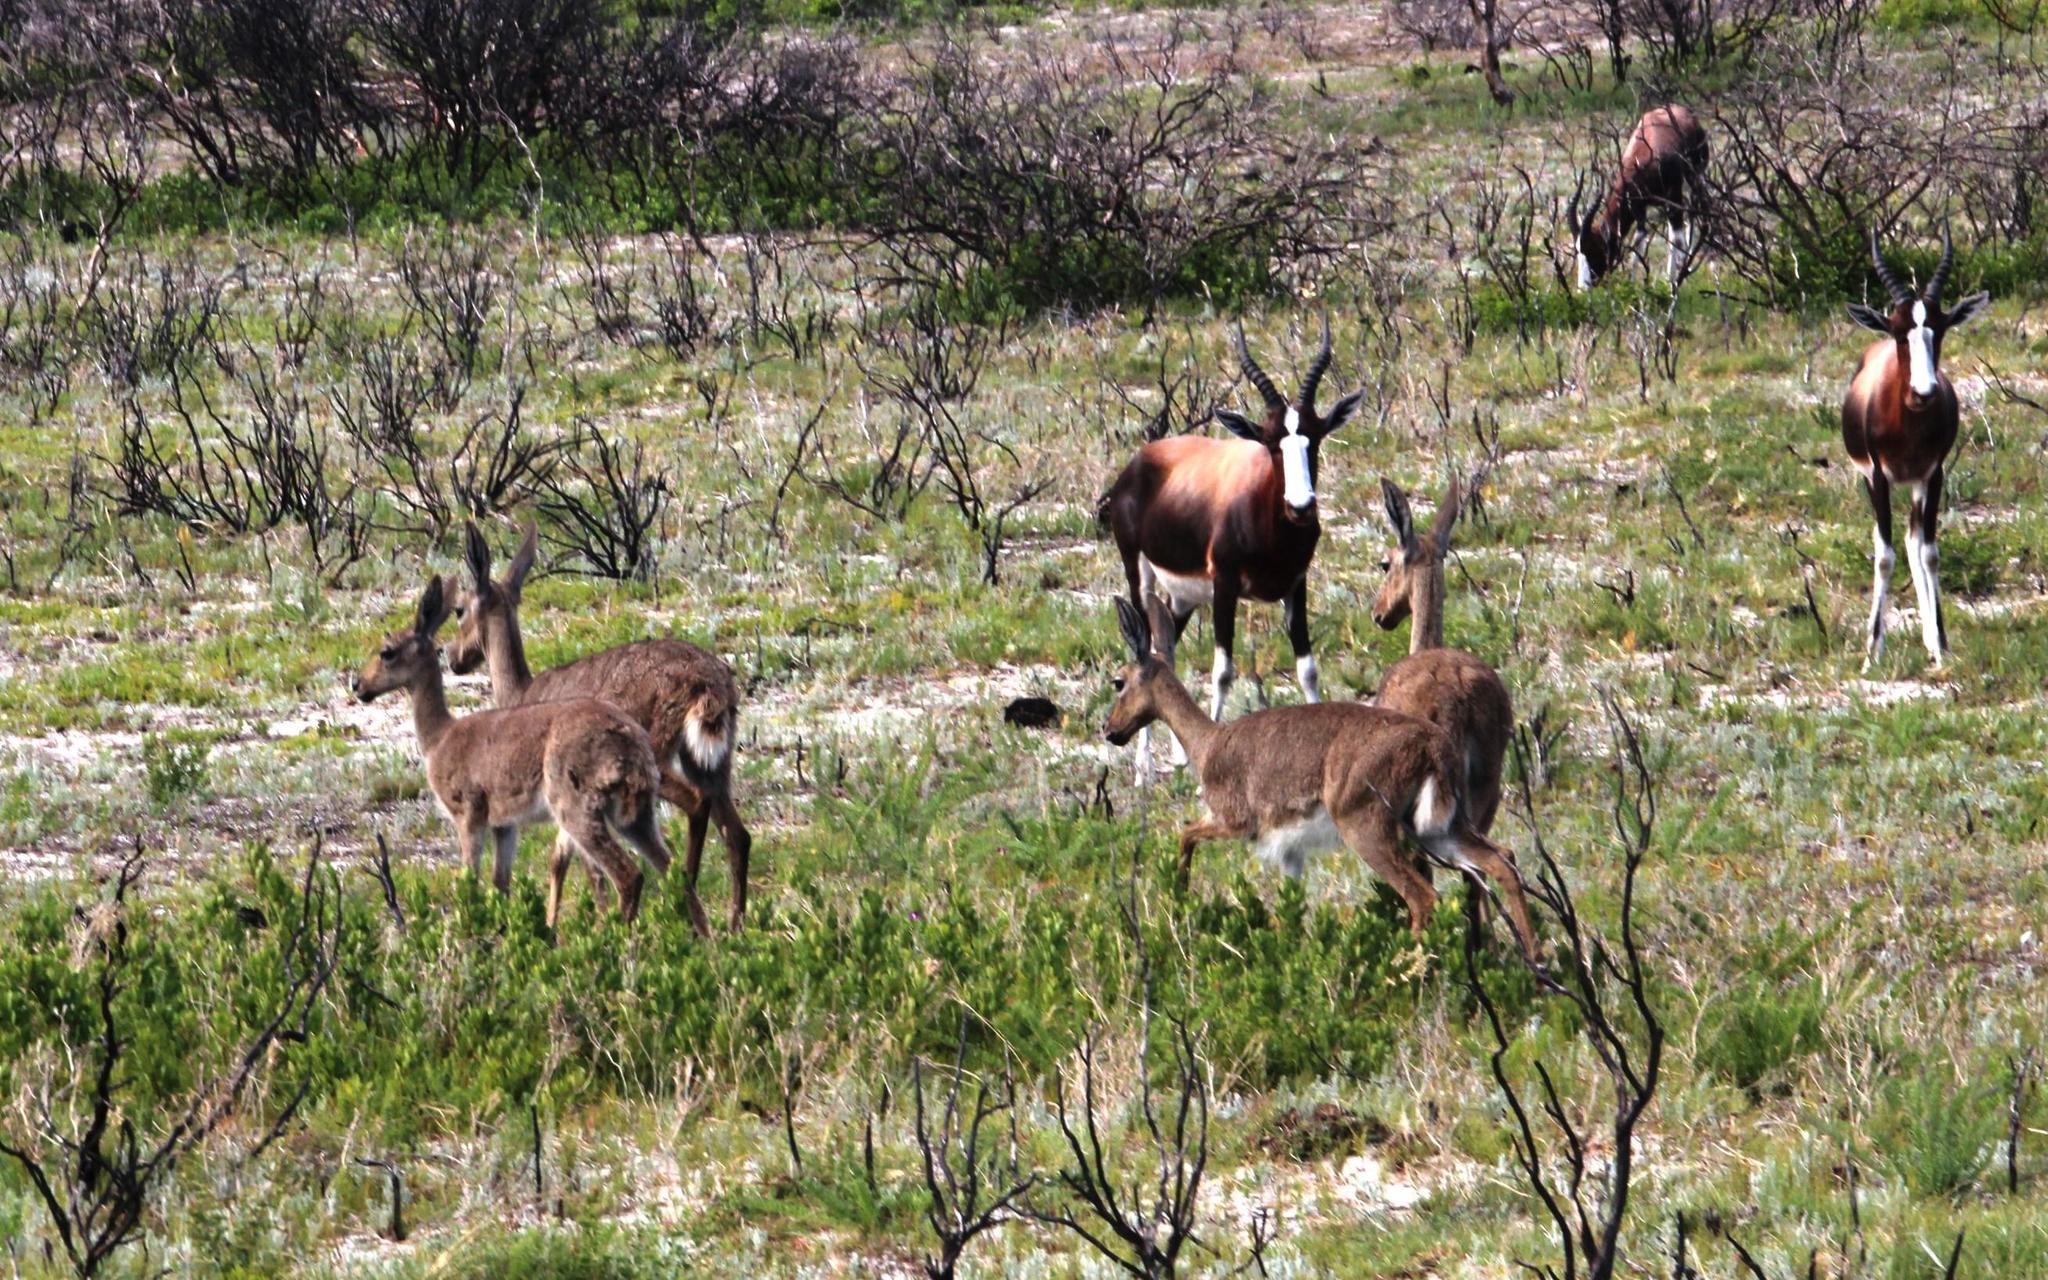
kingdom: Animalia
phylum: Chordata
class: Mammalia
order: Artiodactyla
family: Bovidae
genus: Pelea
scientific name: Pelea capreolus
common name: Common rhebok
